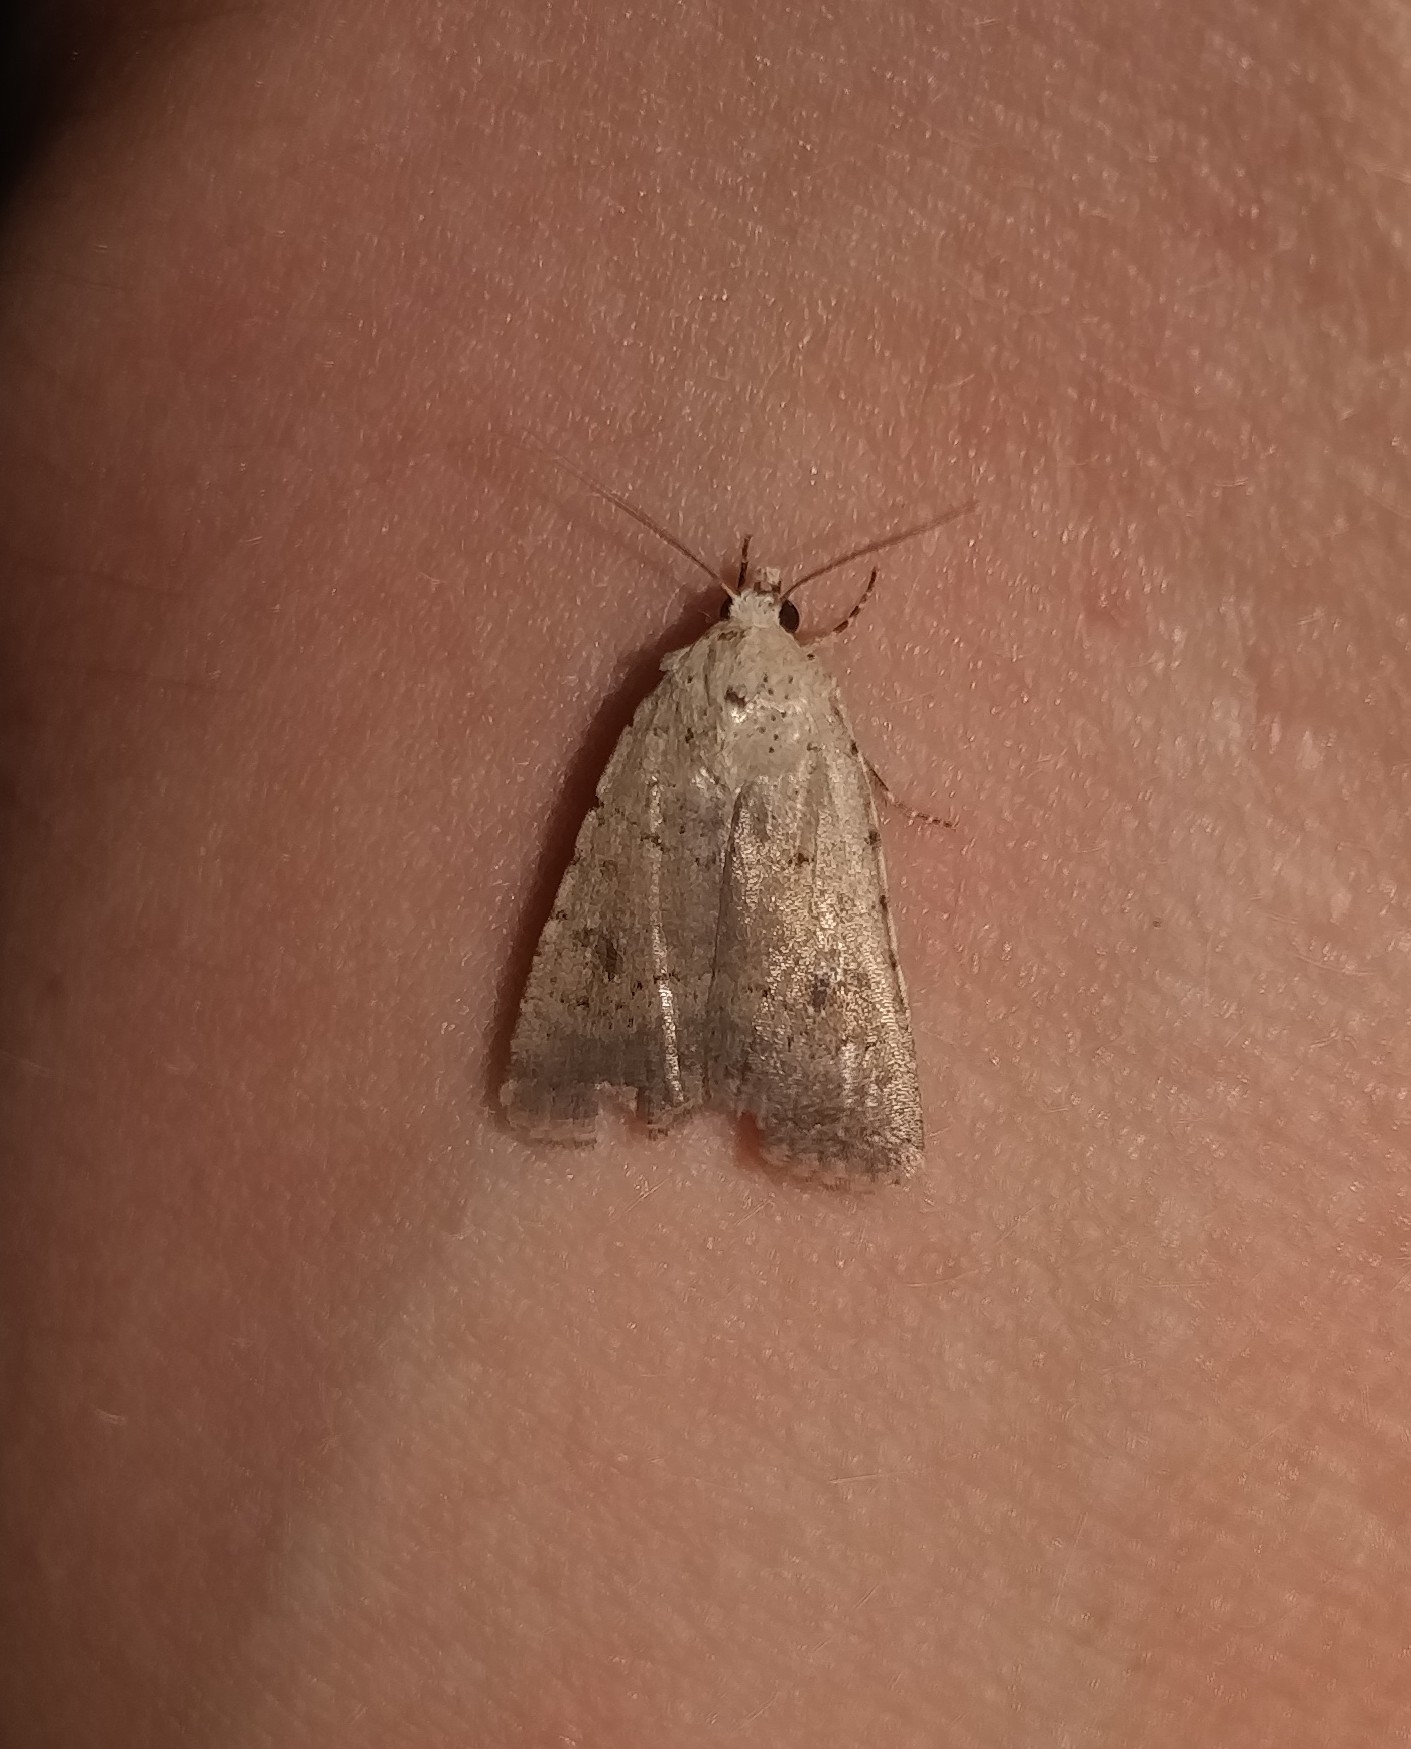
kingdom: Animalia
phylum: Arthropoda
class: Insecta
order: Lepidoptera
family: Noctuidae
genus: Caradrina
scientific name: Caradrina clavipalpis
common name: Pale mottled willow
